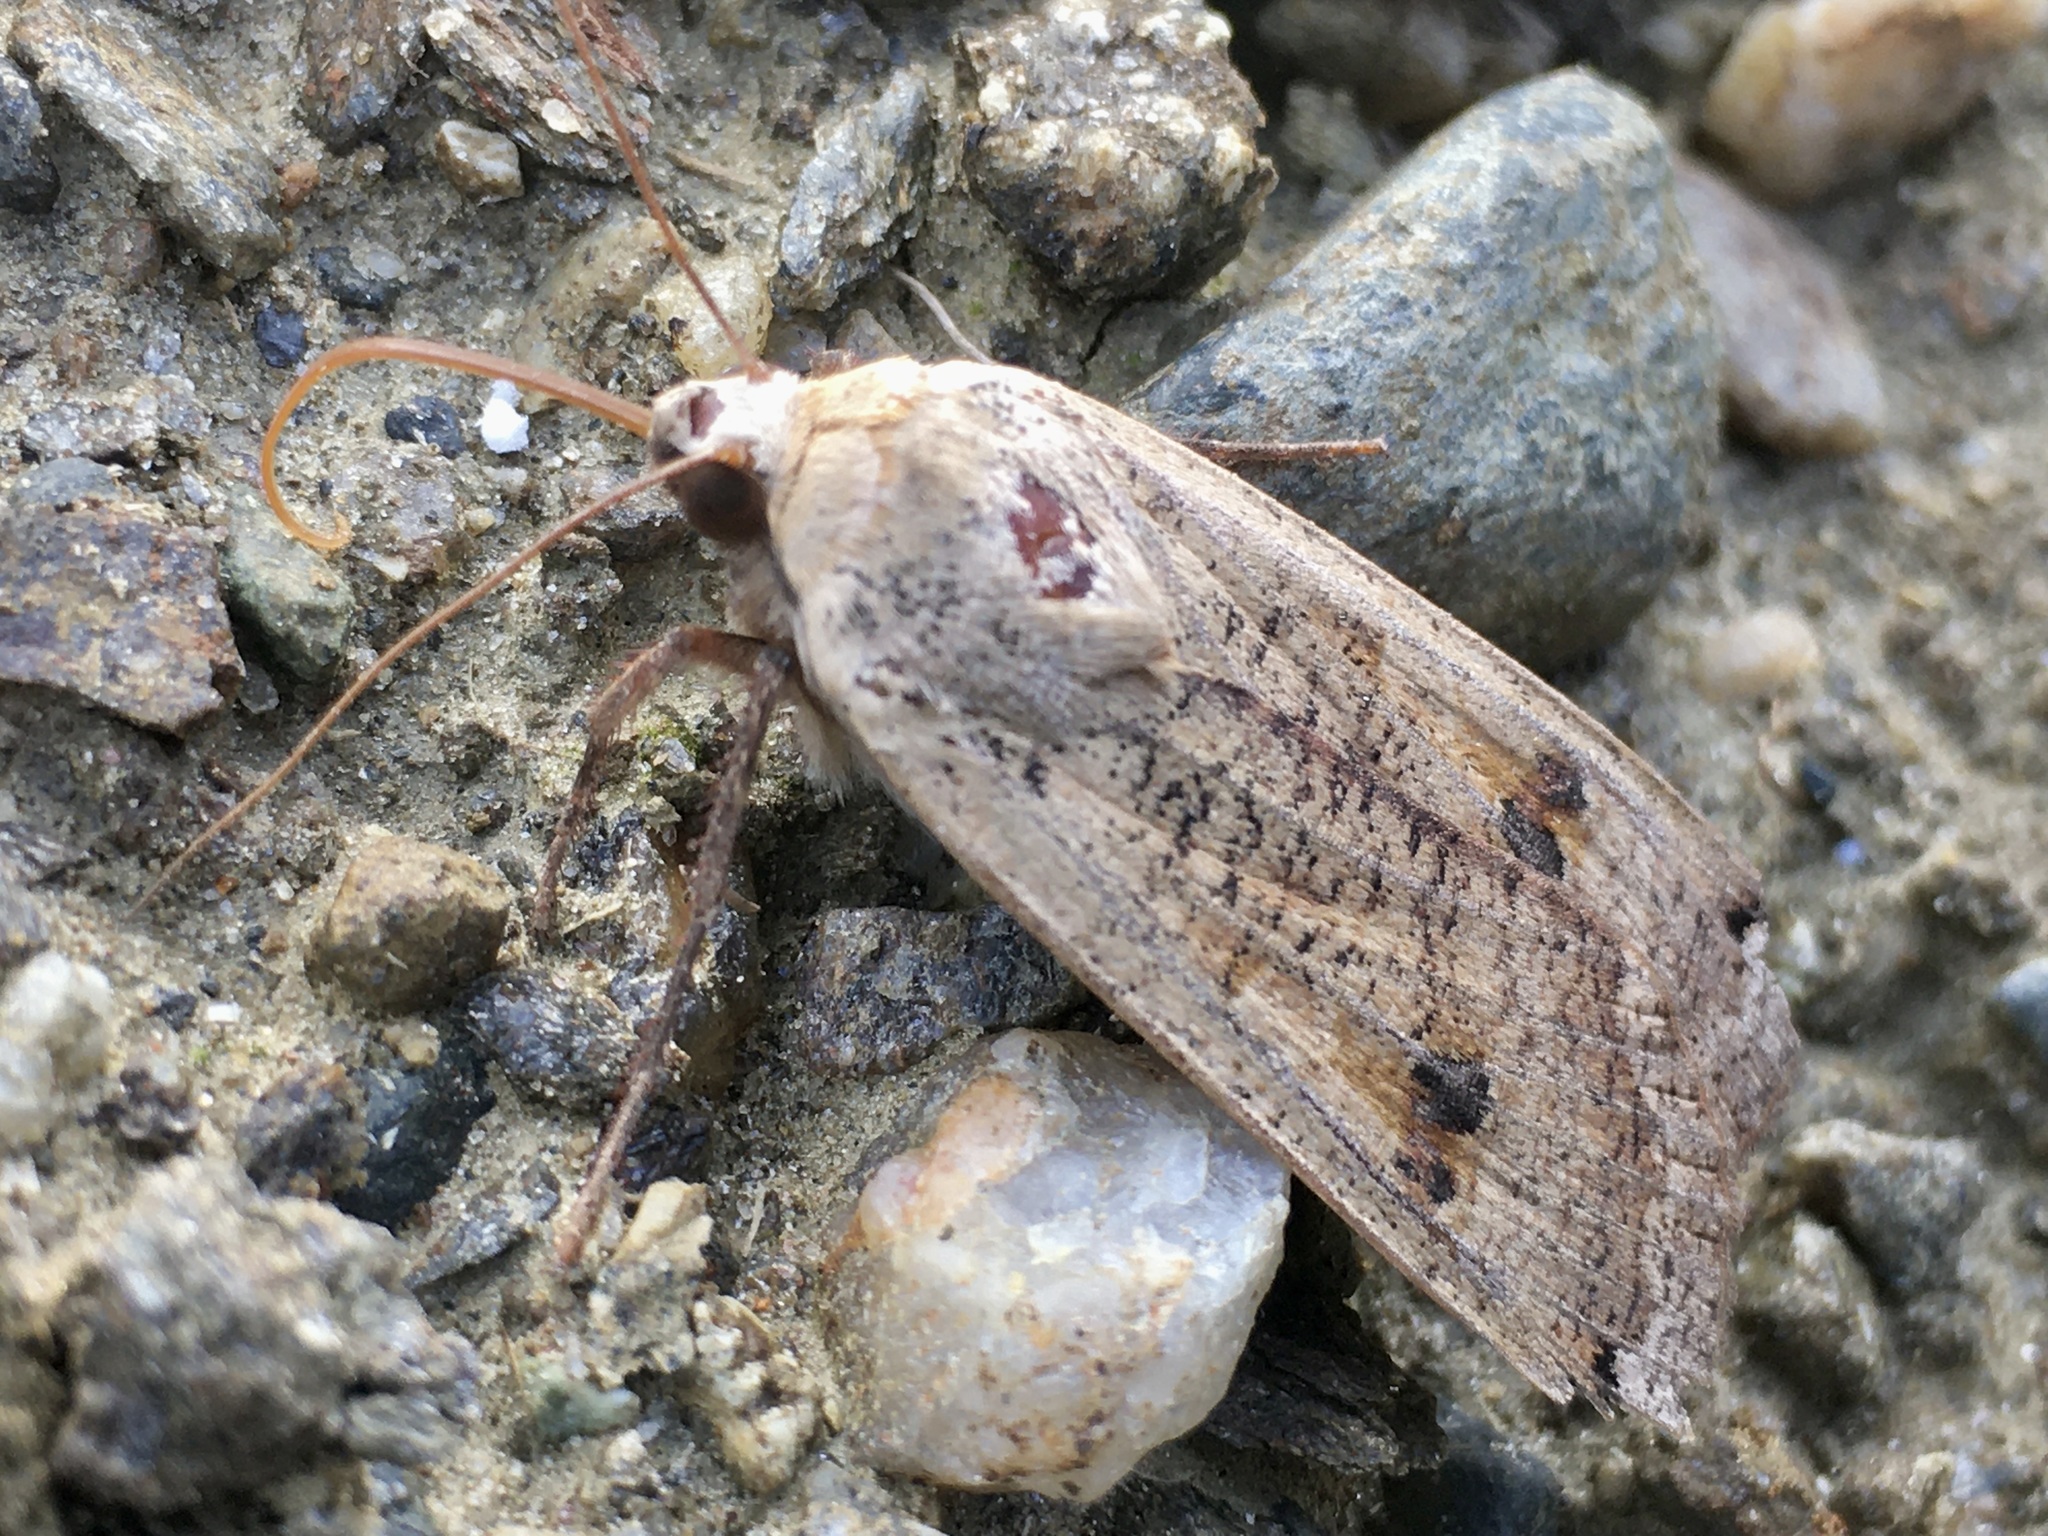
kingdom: Animalia
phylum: Arthropoda
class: Insecta
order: Lepidoptera
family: Noctuidae
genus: Noctua
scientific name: Noctua pronuba
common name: Large yellow underwing
